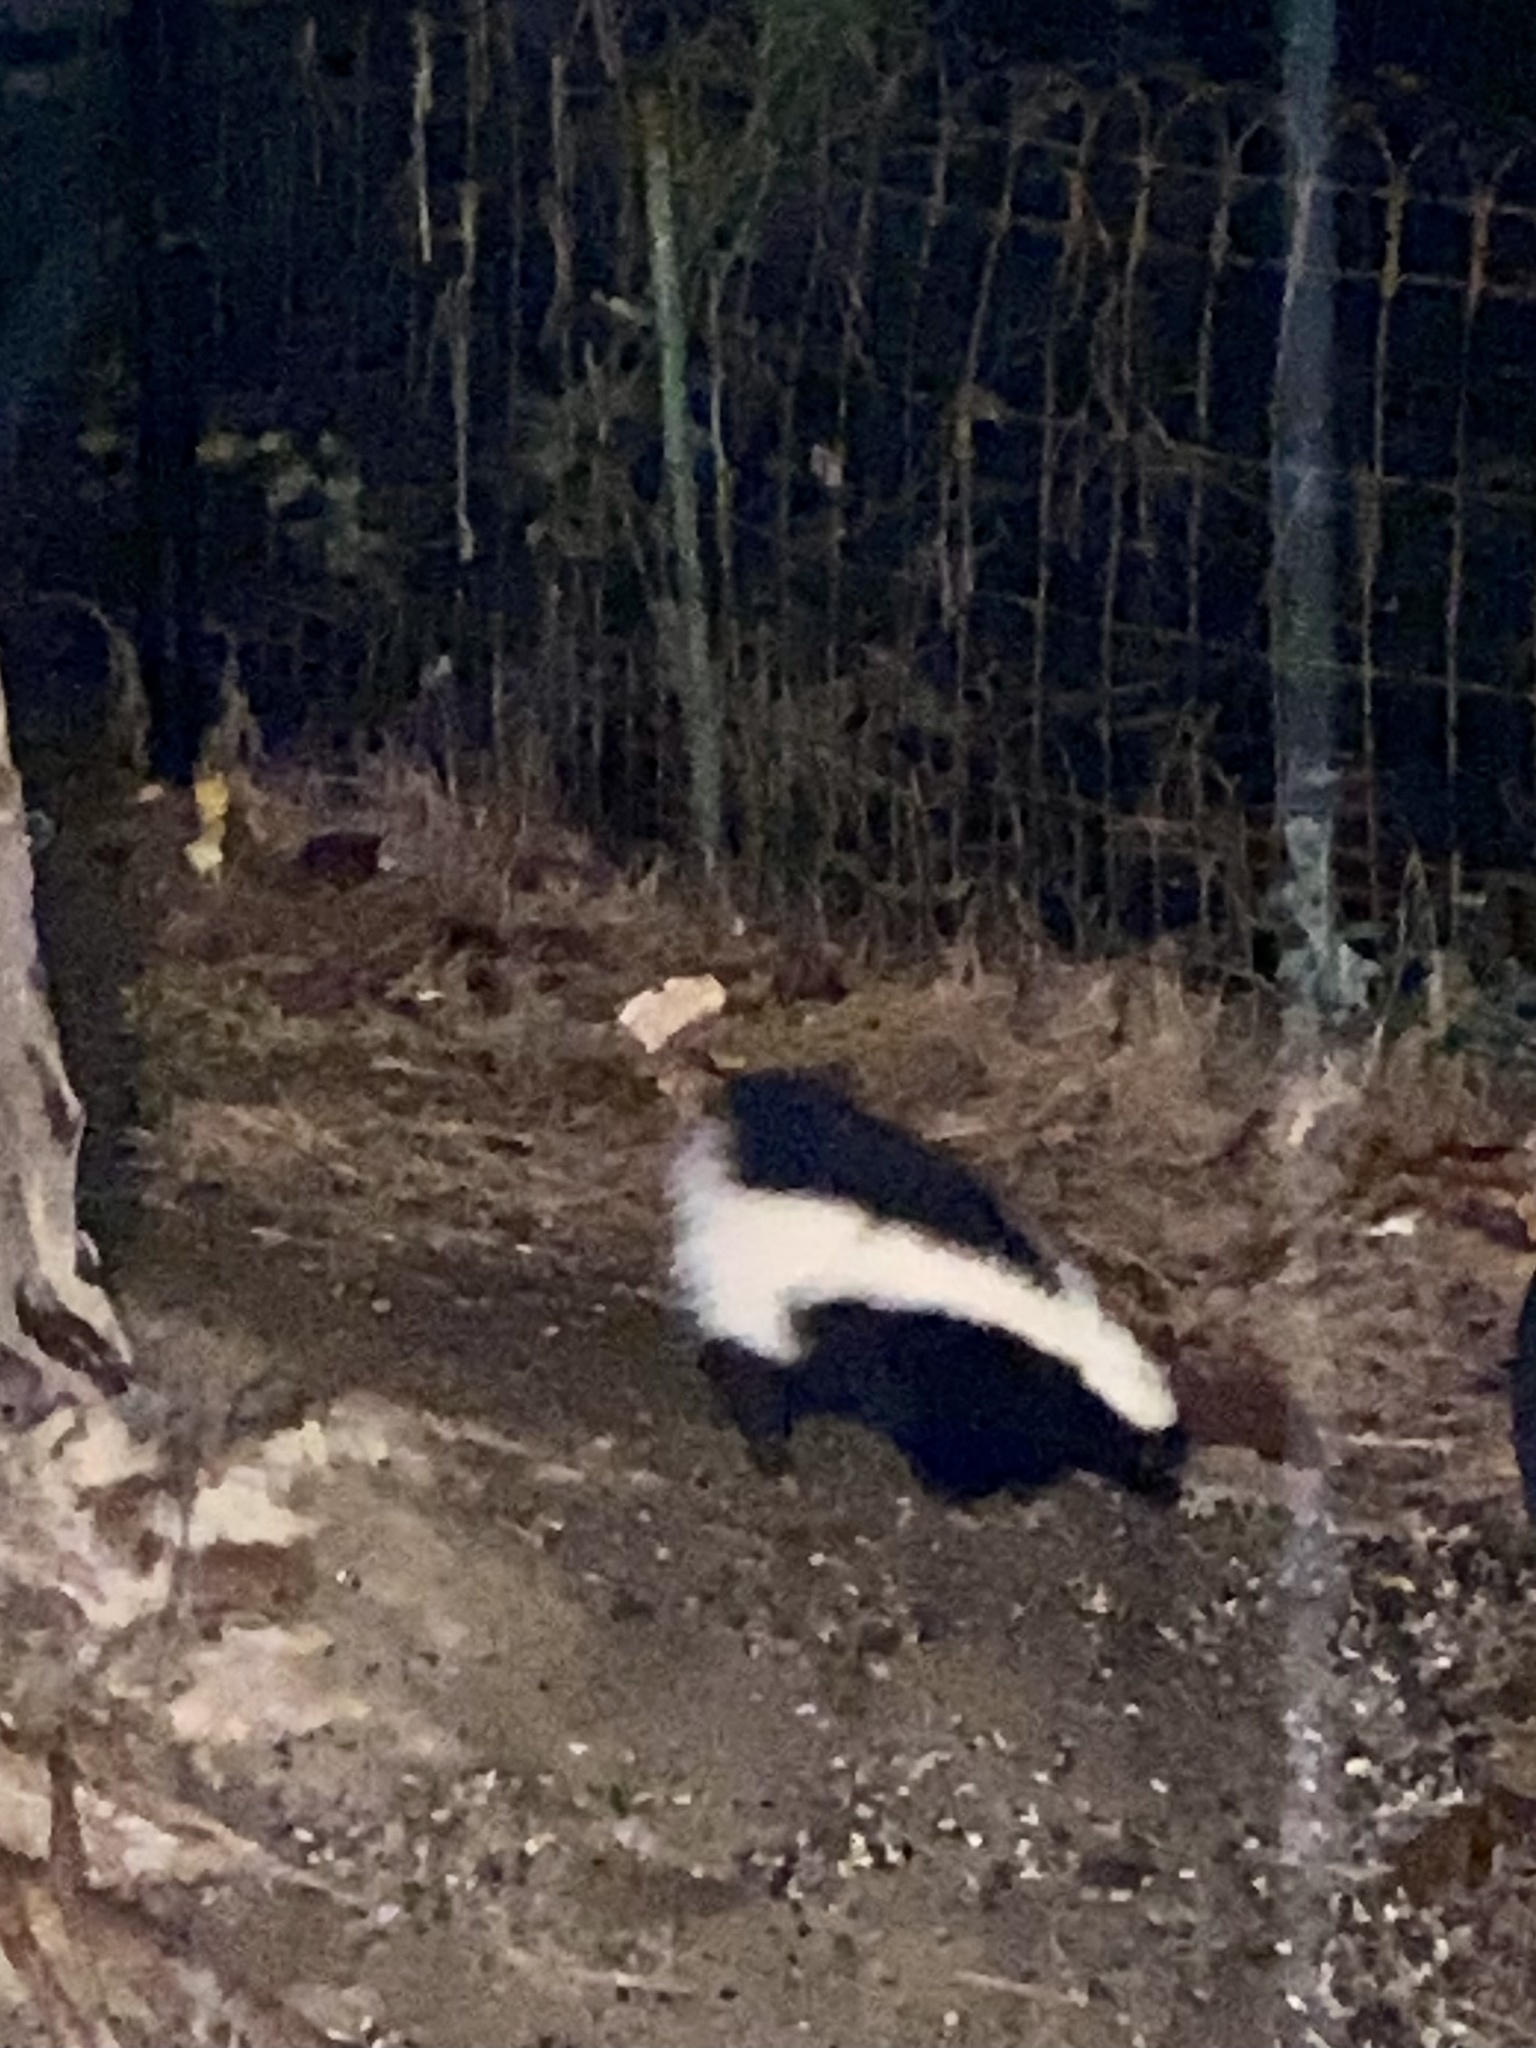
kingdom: Animalia
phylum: Chordata
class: Mammalia
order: Carnivora
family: Mephitidae
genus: Mephitis
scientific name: Mephitis mephitis
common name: Striped skunk
